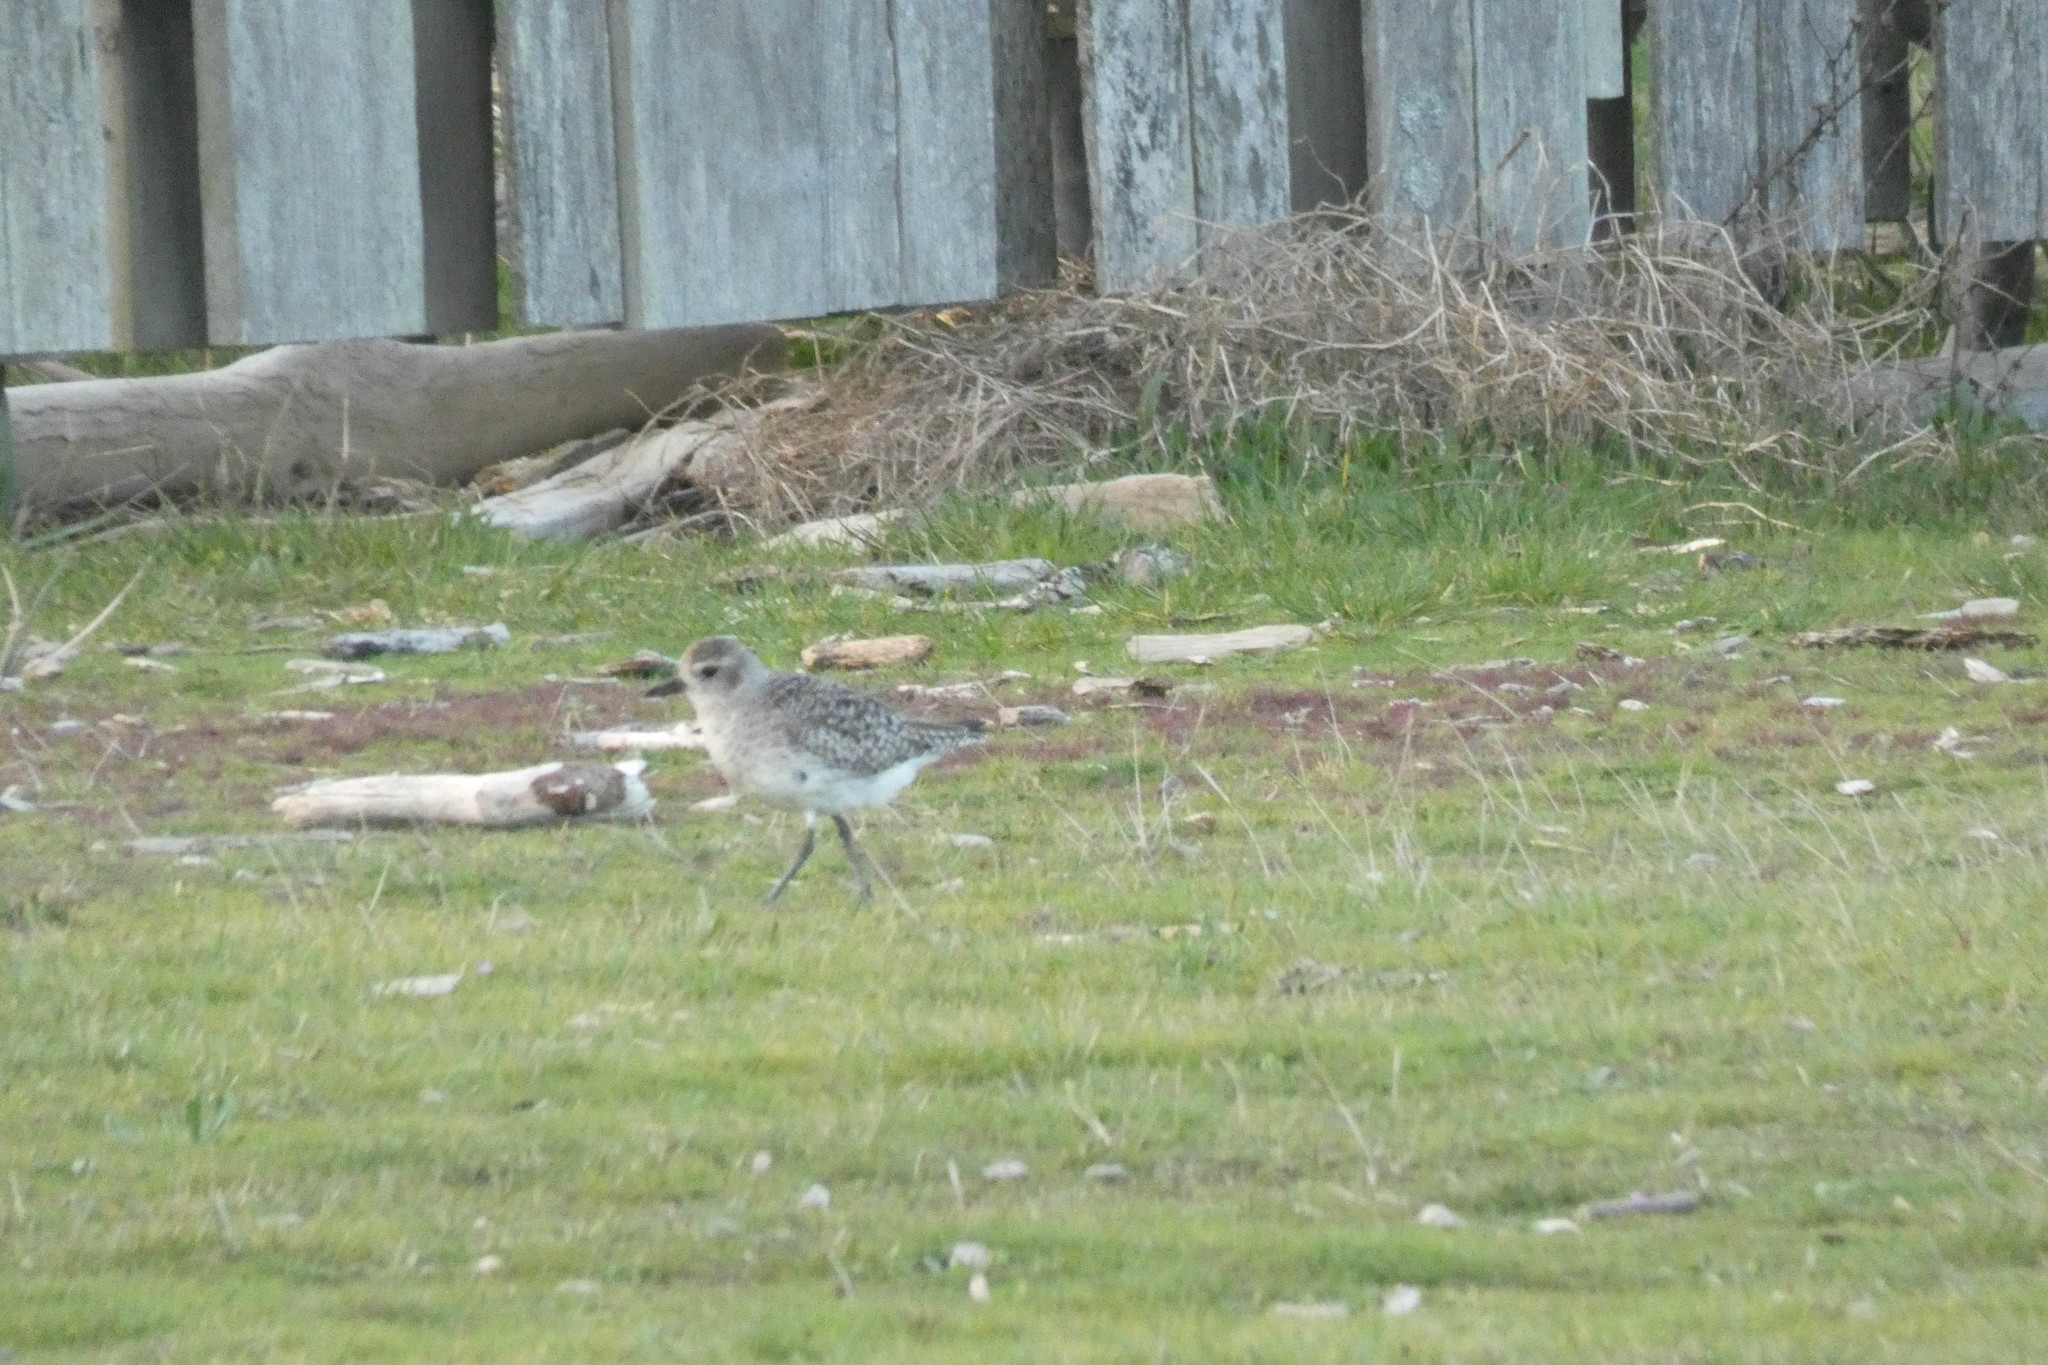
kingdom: Animalia
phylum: Chordata
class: Aves
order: Charadriiformes
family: Charadriidae
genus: Pluvialis
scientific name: Pluvialis squatarola
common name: Grey plover
